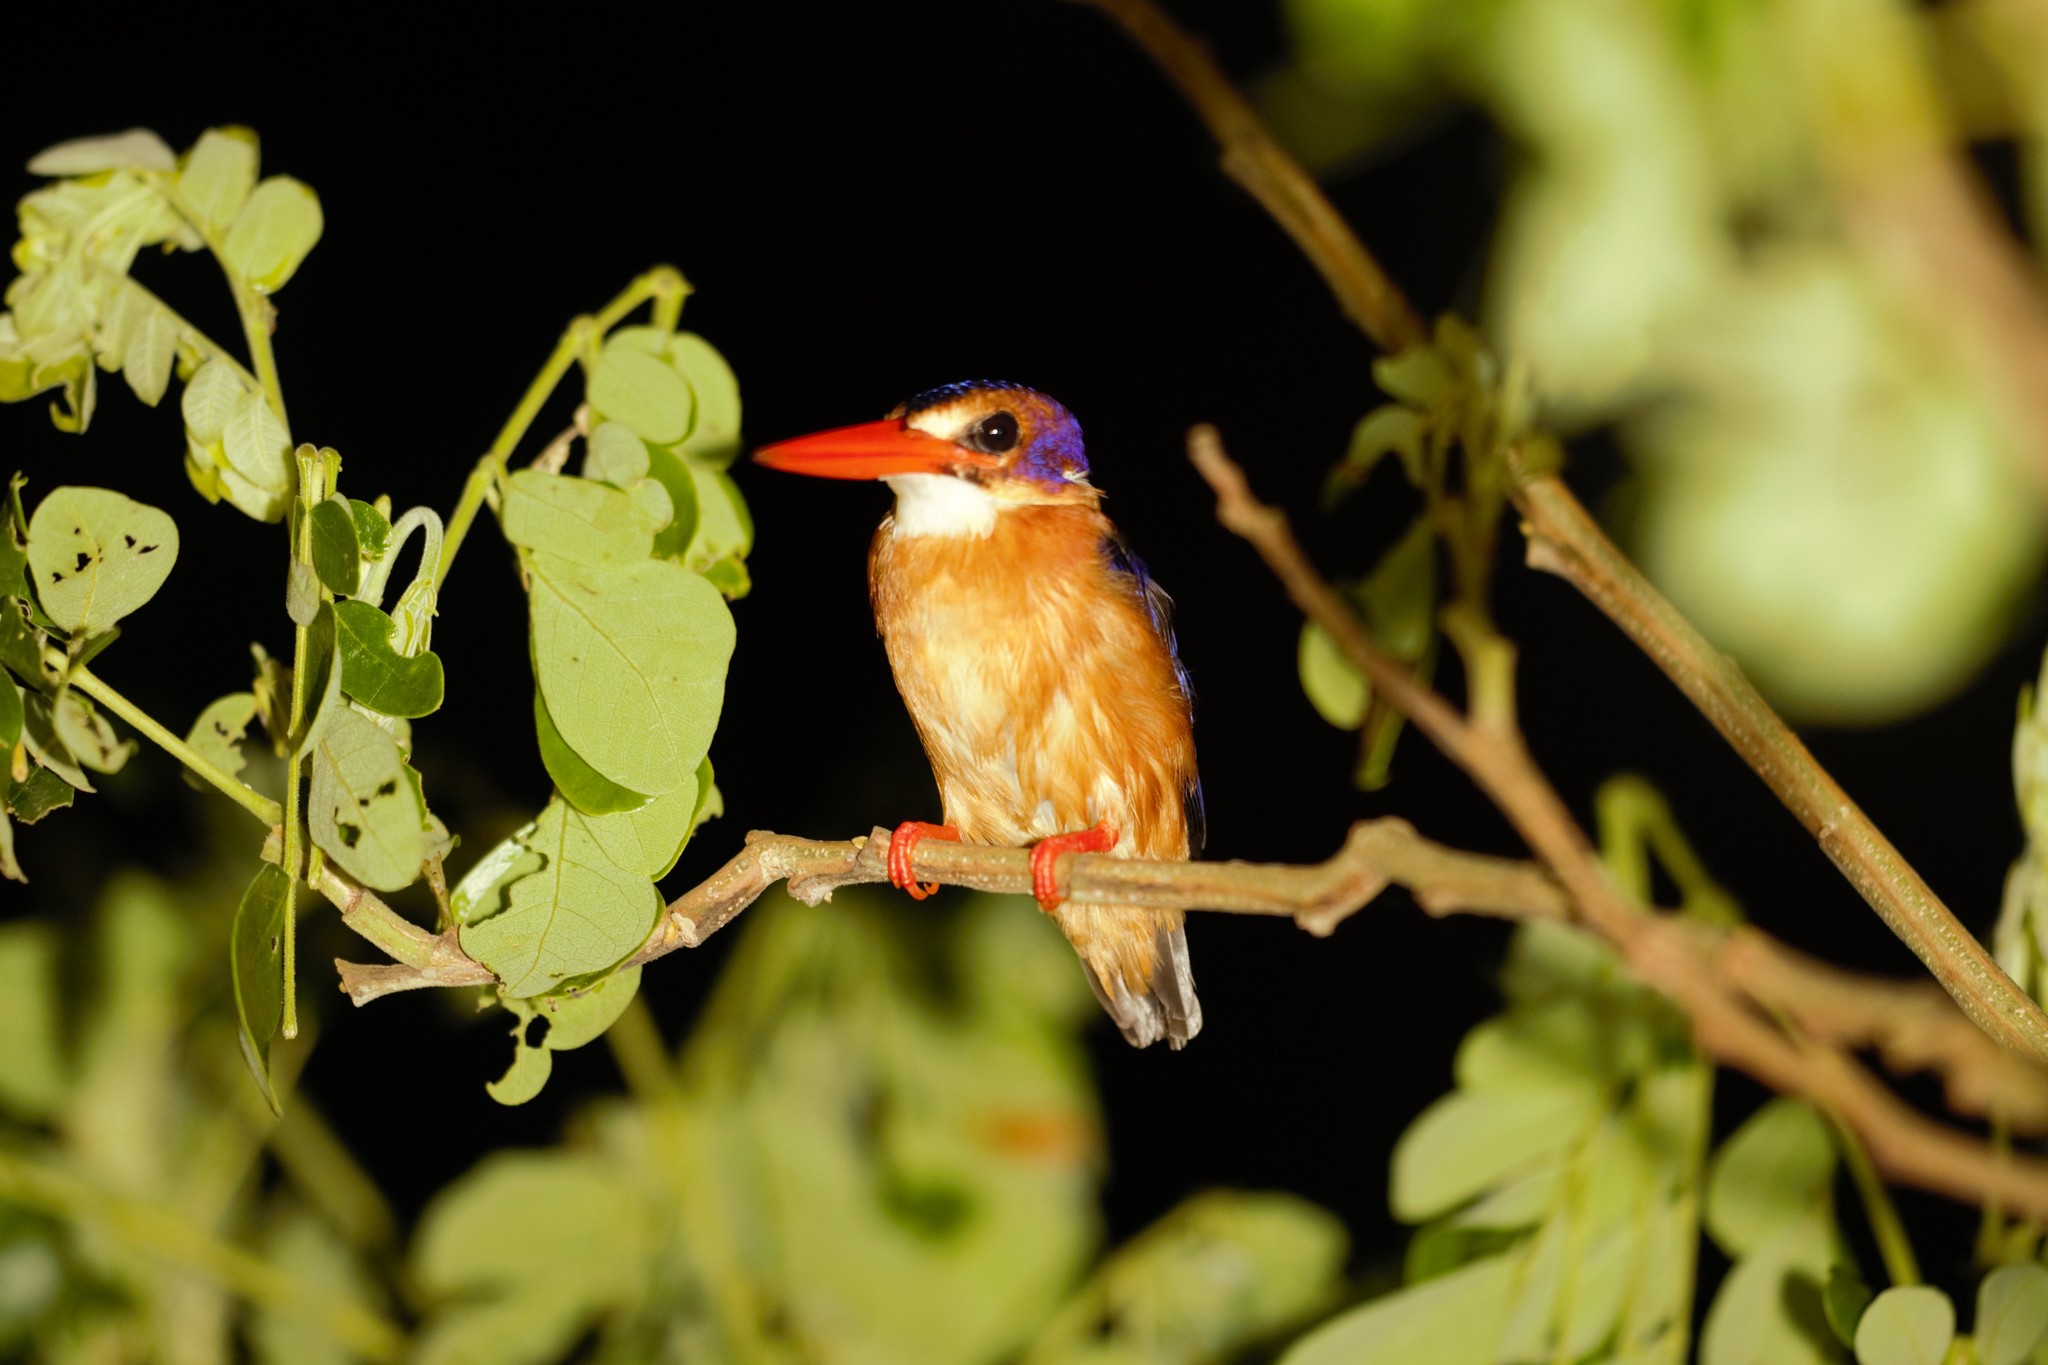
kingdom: Animalia
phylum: Chordata
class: Aves
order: Coraciiformes
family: Alcedinidae
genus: Ispidina
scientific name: Ispidina picta
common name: African pygmy-kingfisher
